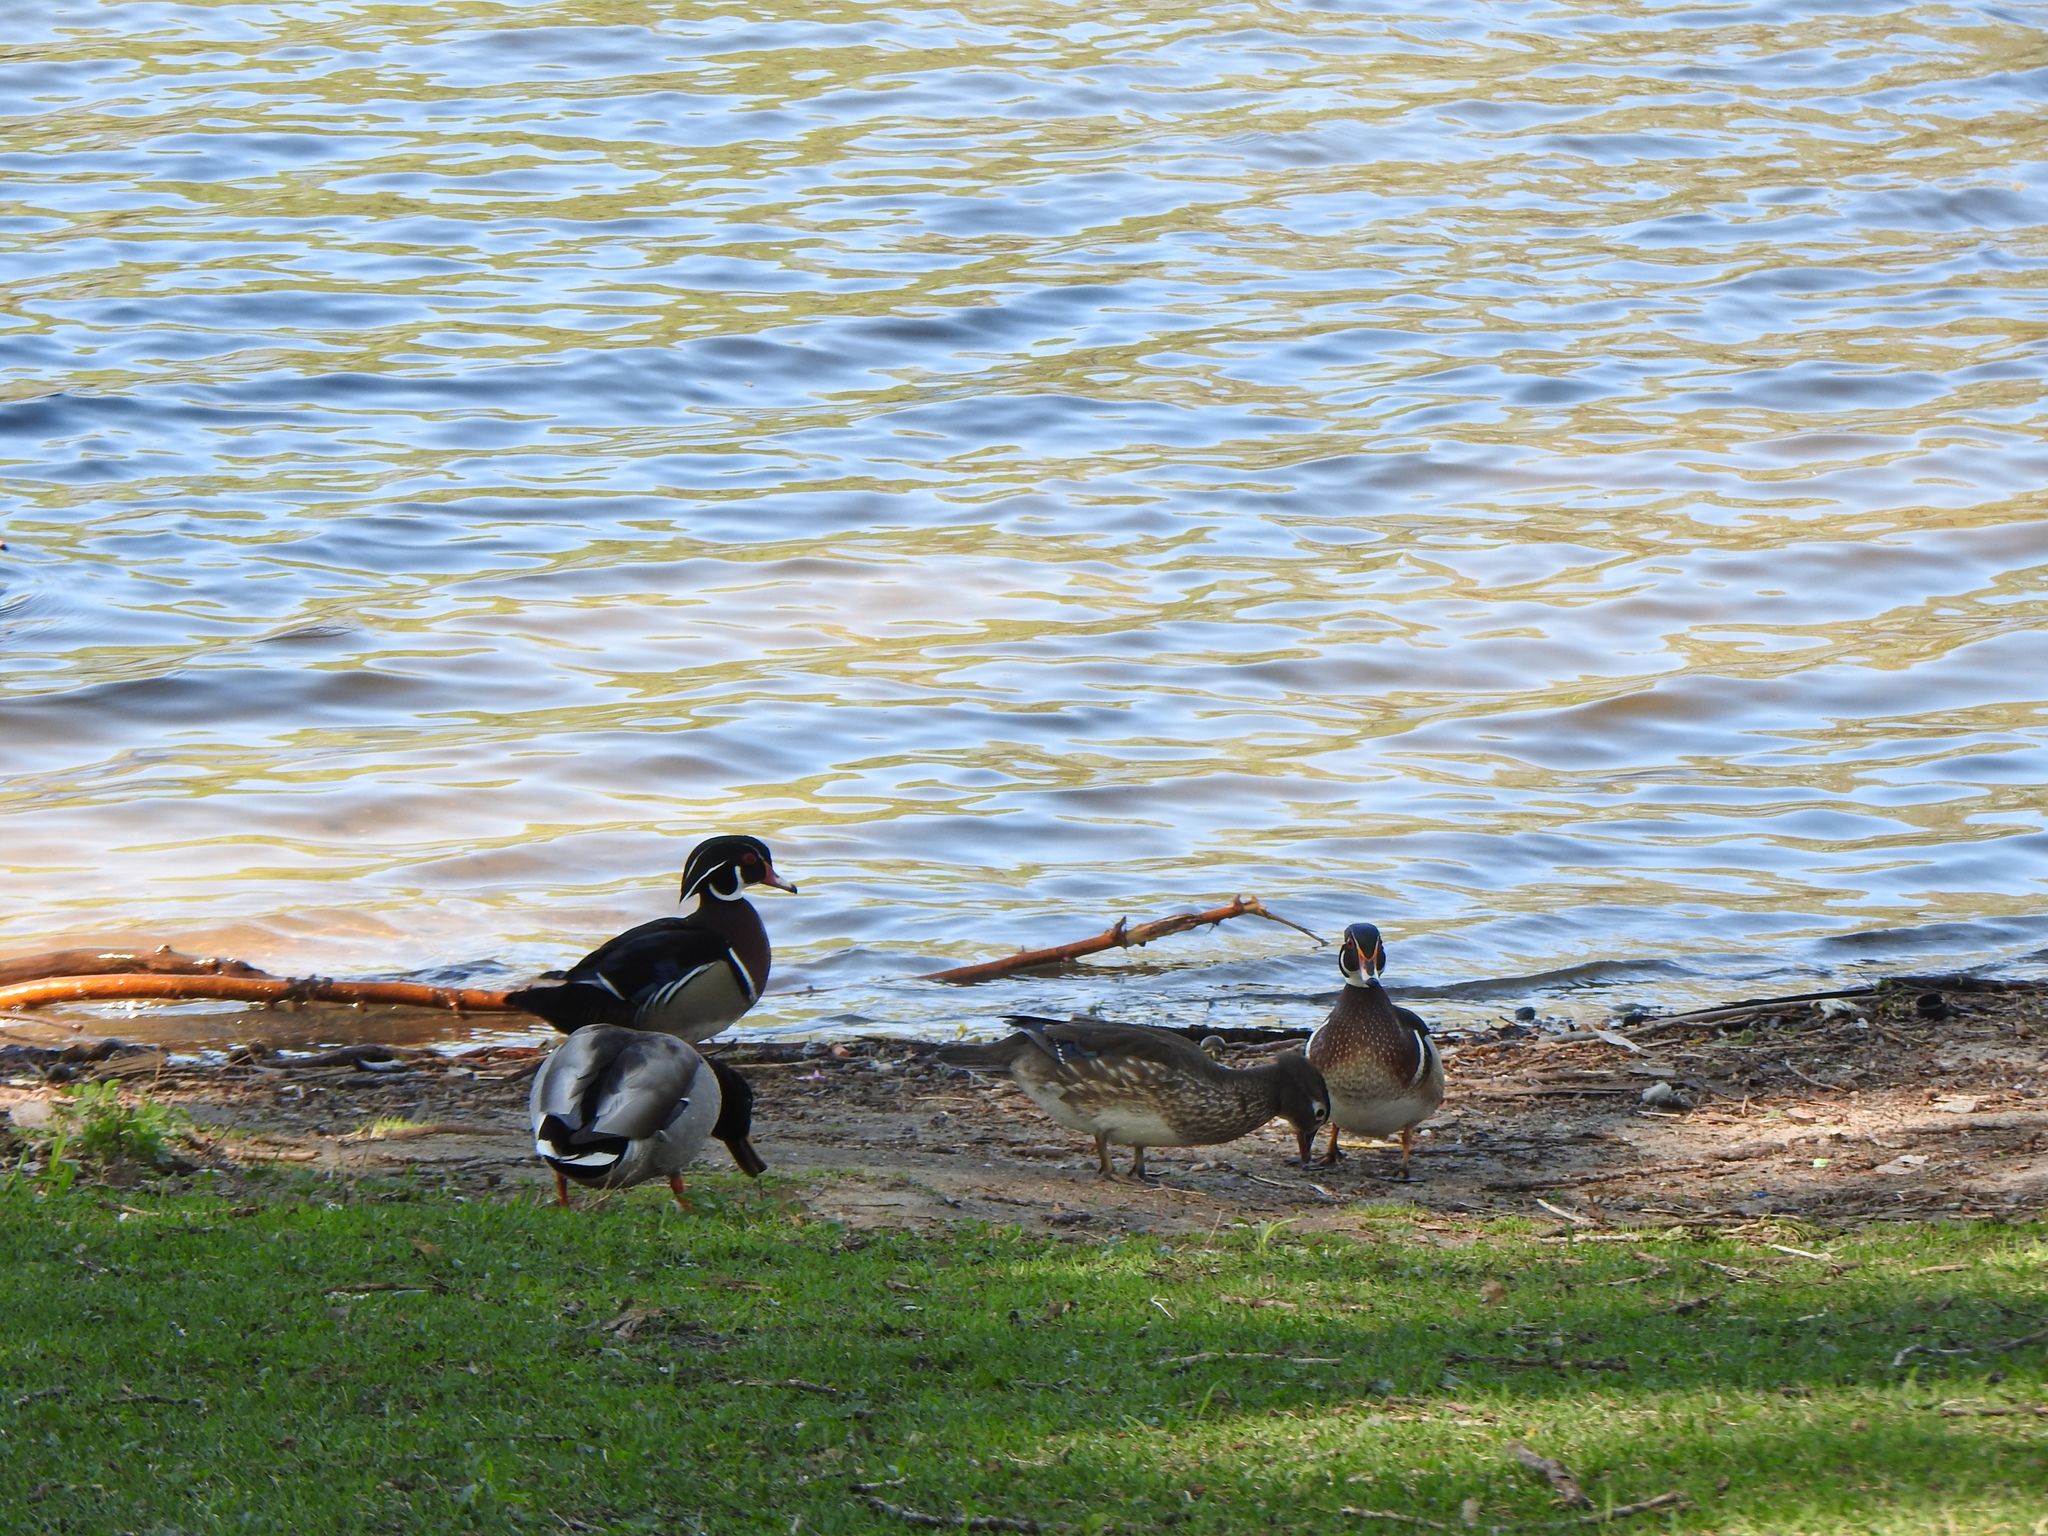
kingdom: Animalia
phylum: Chordata
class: Aves
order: Anseriformes
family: Anatidae
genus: Aix
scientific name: Aix sponsa
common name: Wood duck
